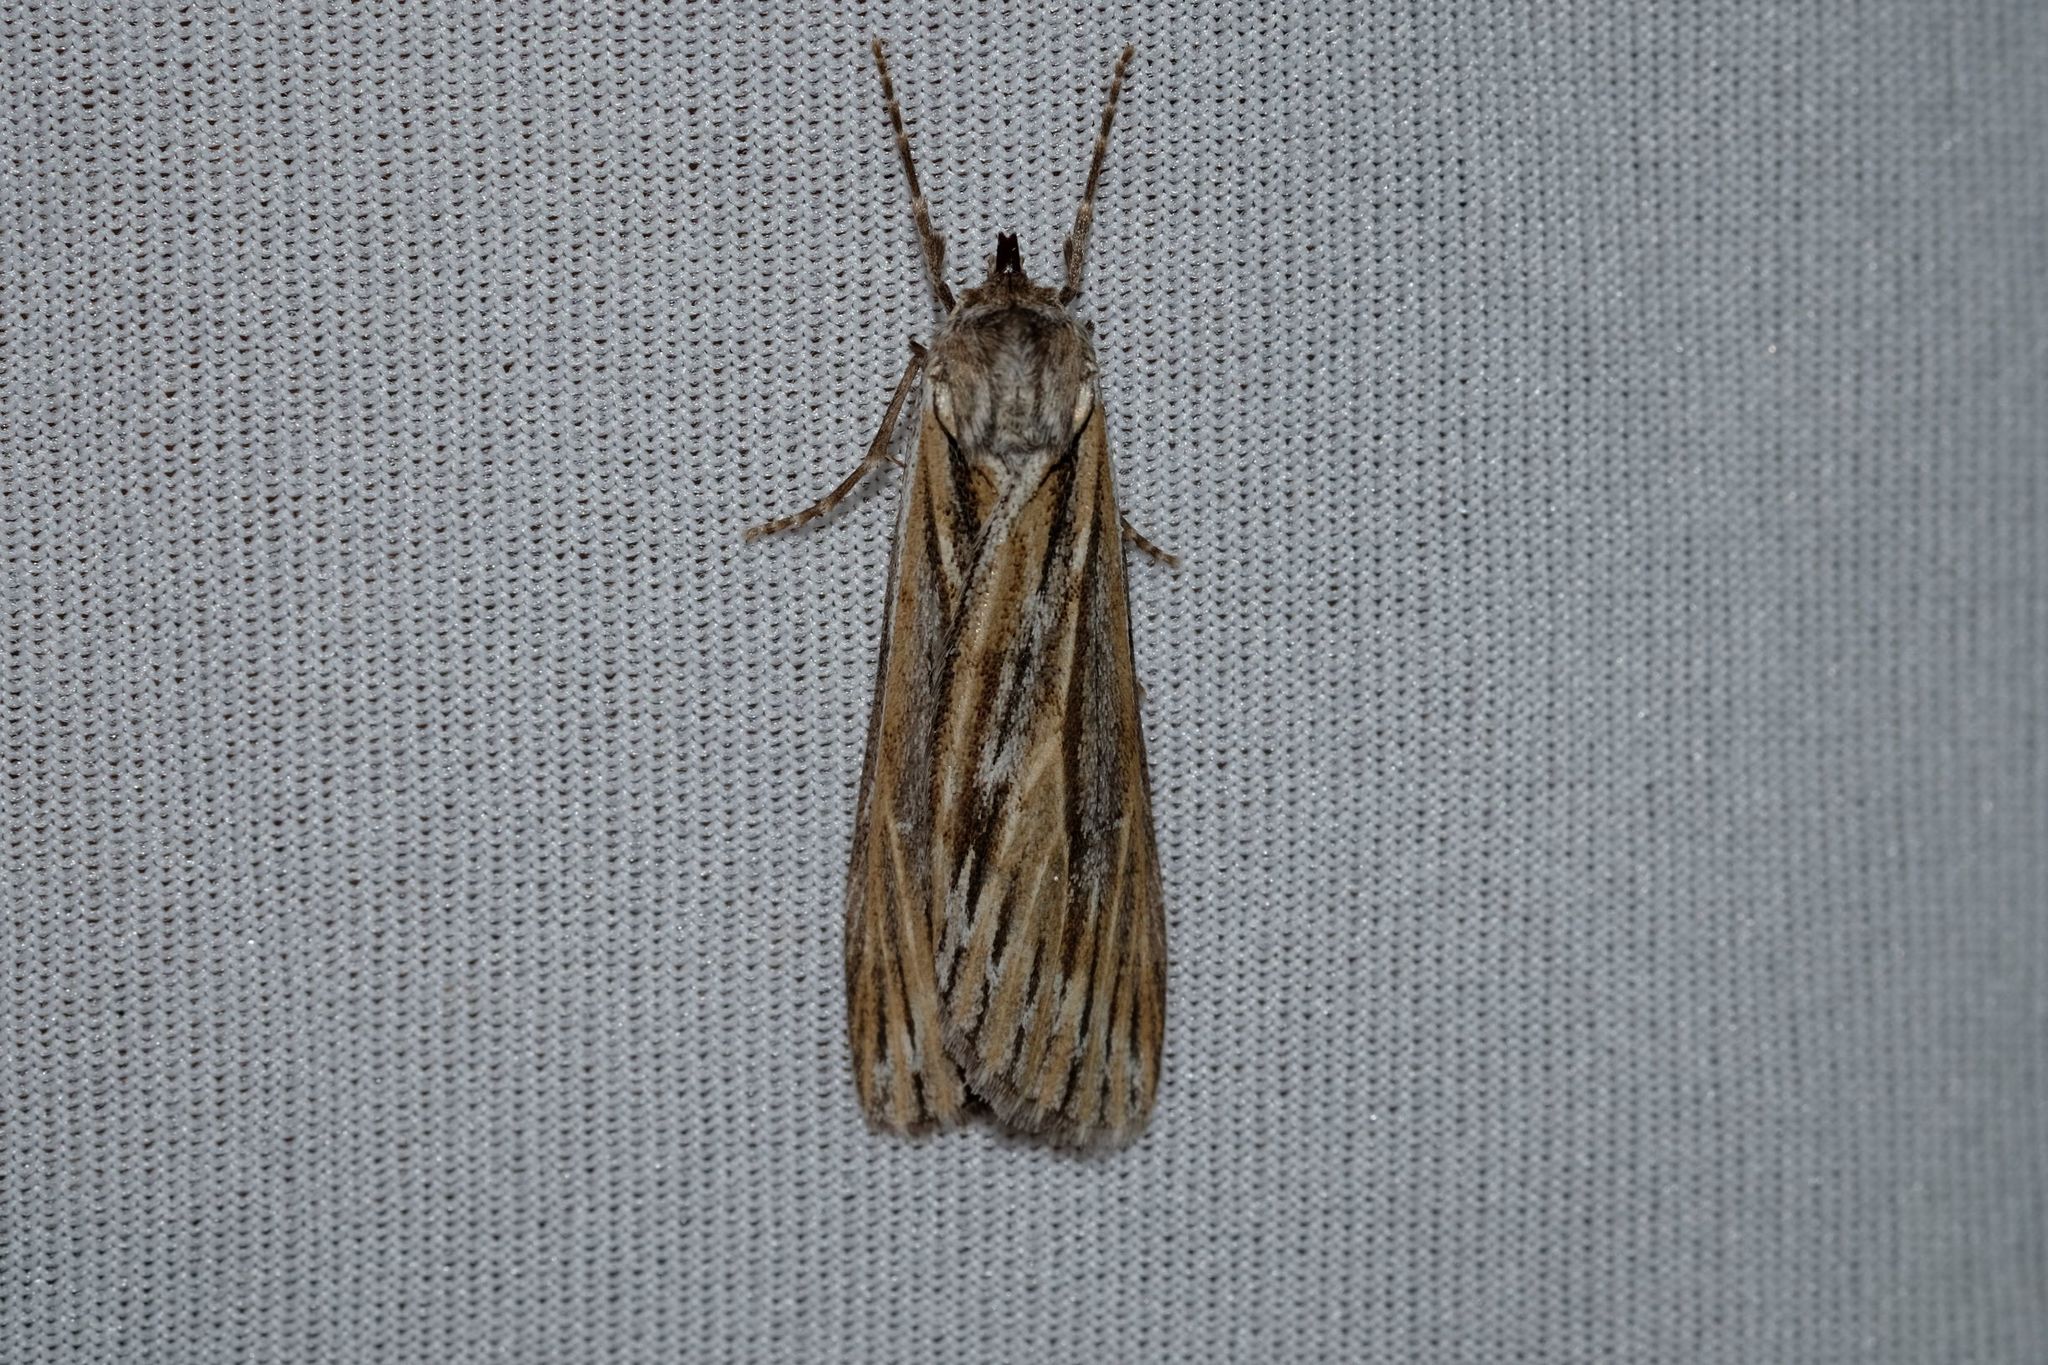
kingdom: Animalia
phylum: Arthropoda
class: Insecta
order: Lepidoptera
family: Geometridae
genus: Ciampa
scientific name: Ciampa arietaria
